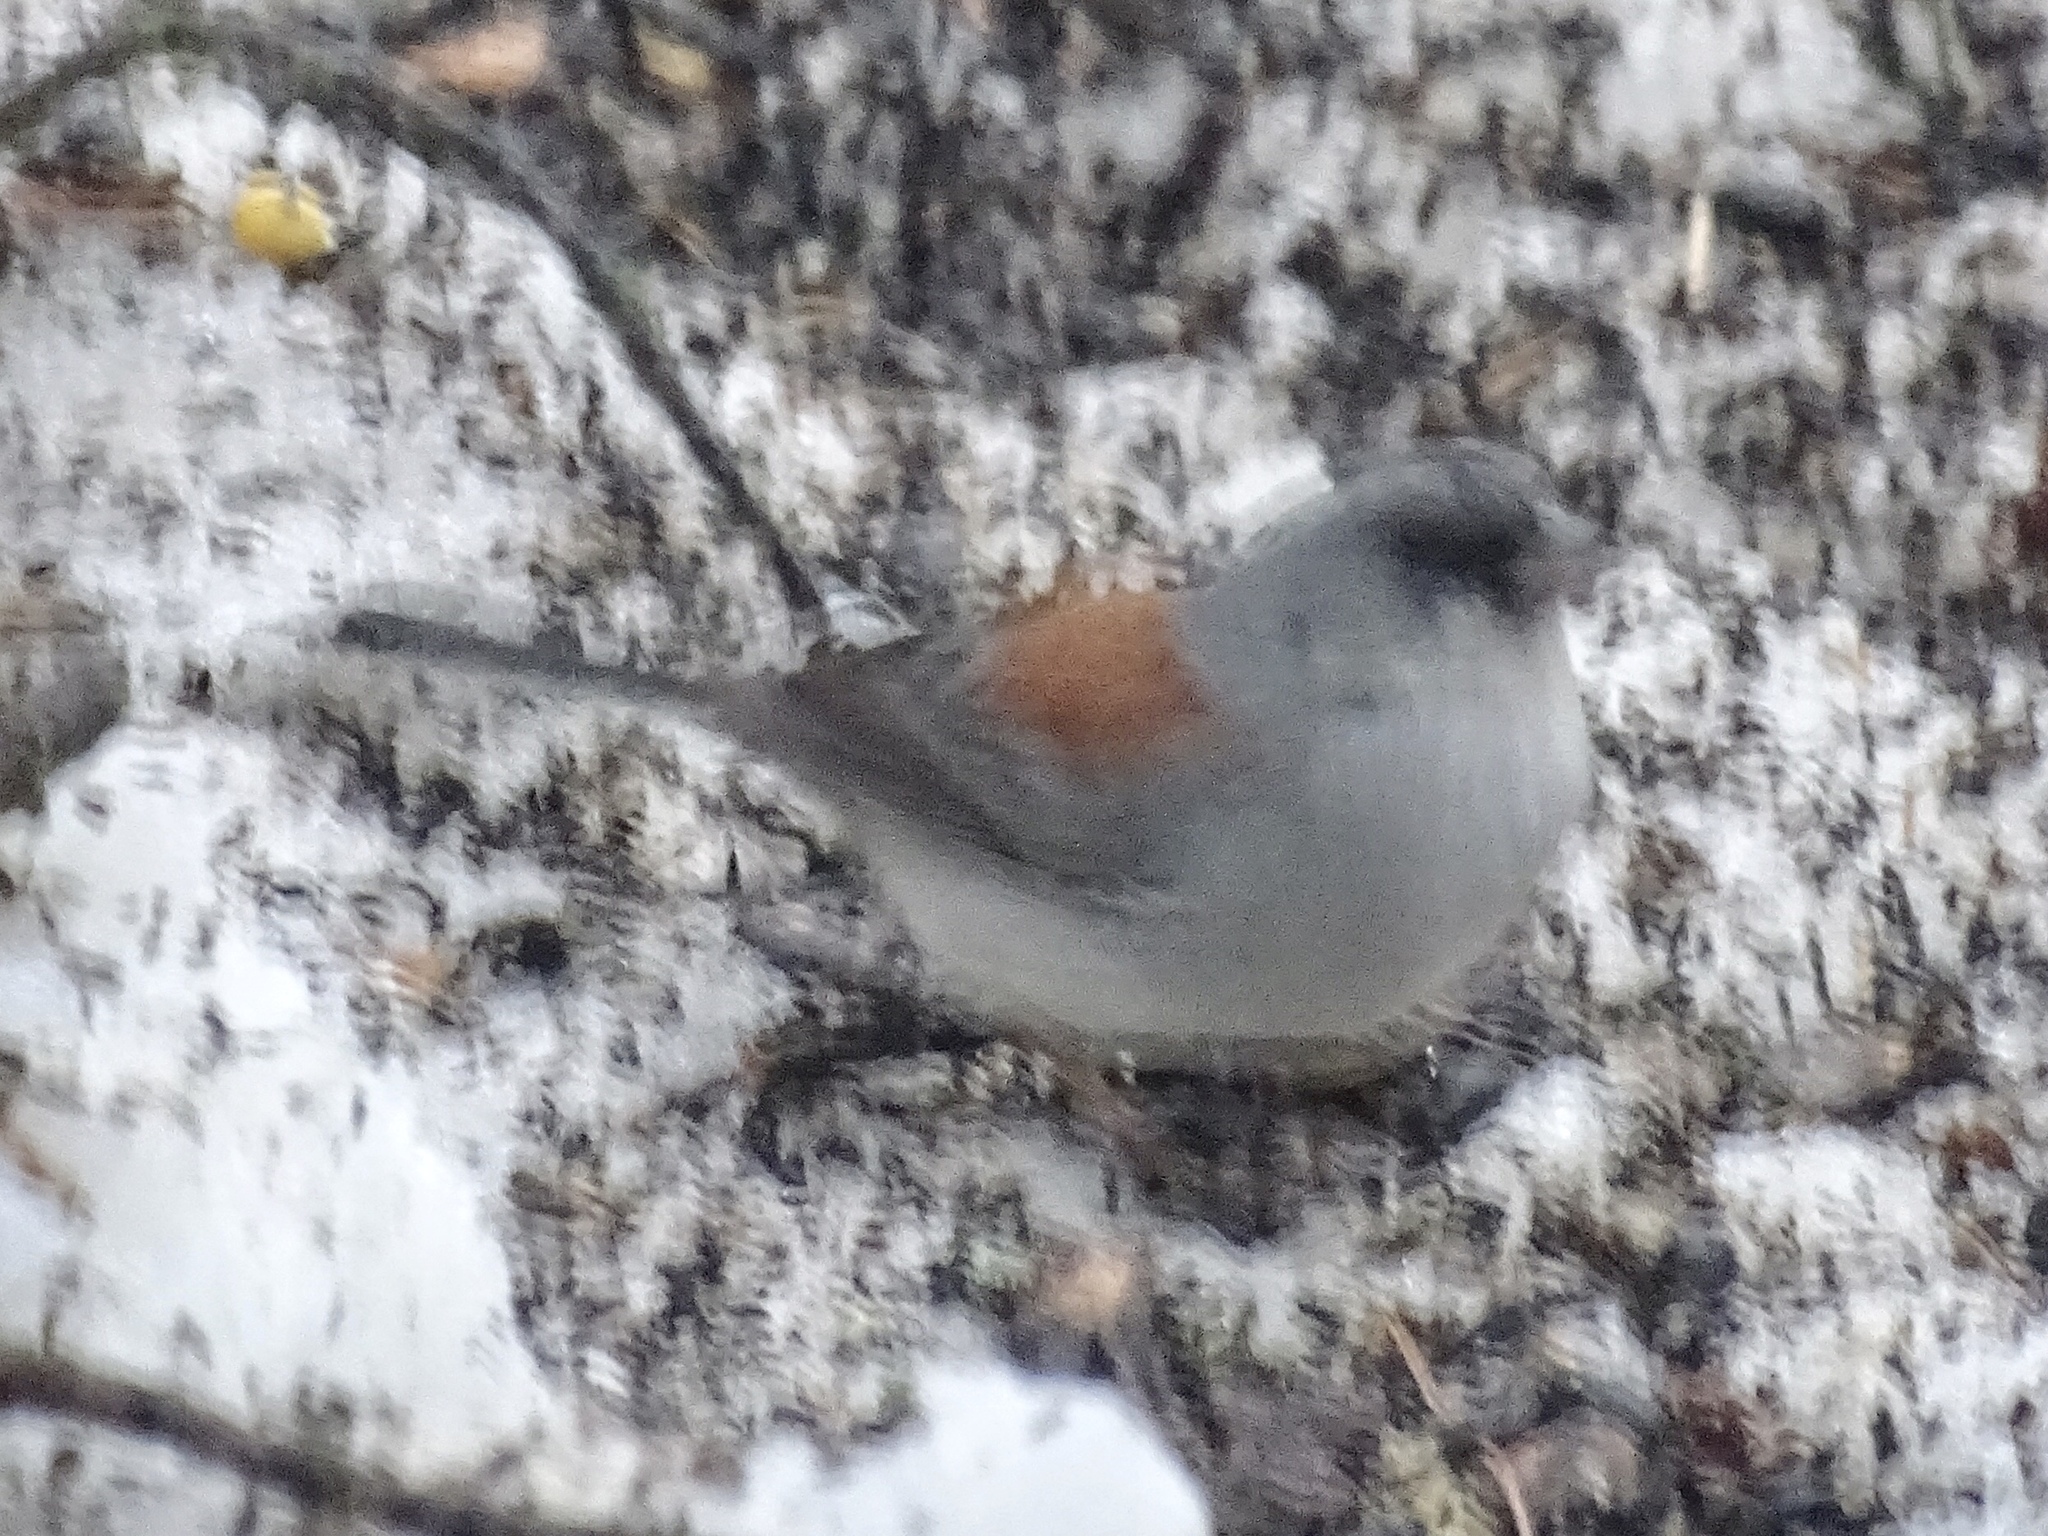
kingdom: Animalia
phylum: Chordata
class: Aves
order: Passeriformes
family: Passerellidae
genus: Junco
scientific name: Junco hyemalis
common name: Dark-eyed junco
